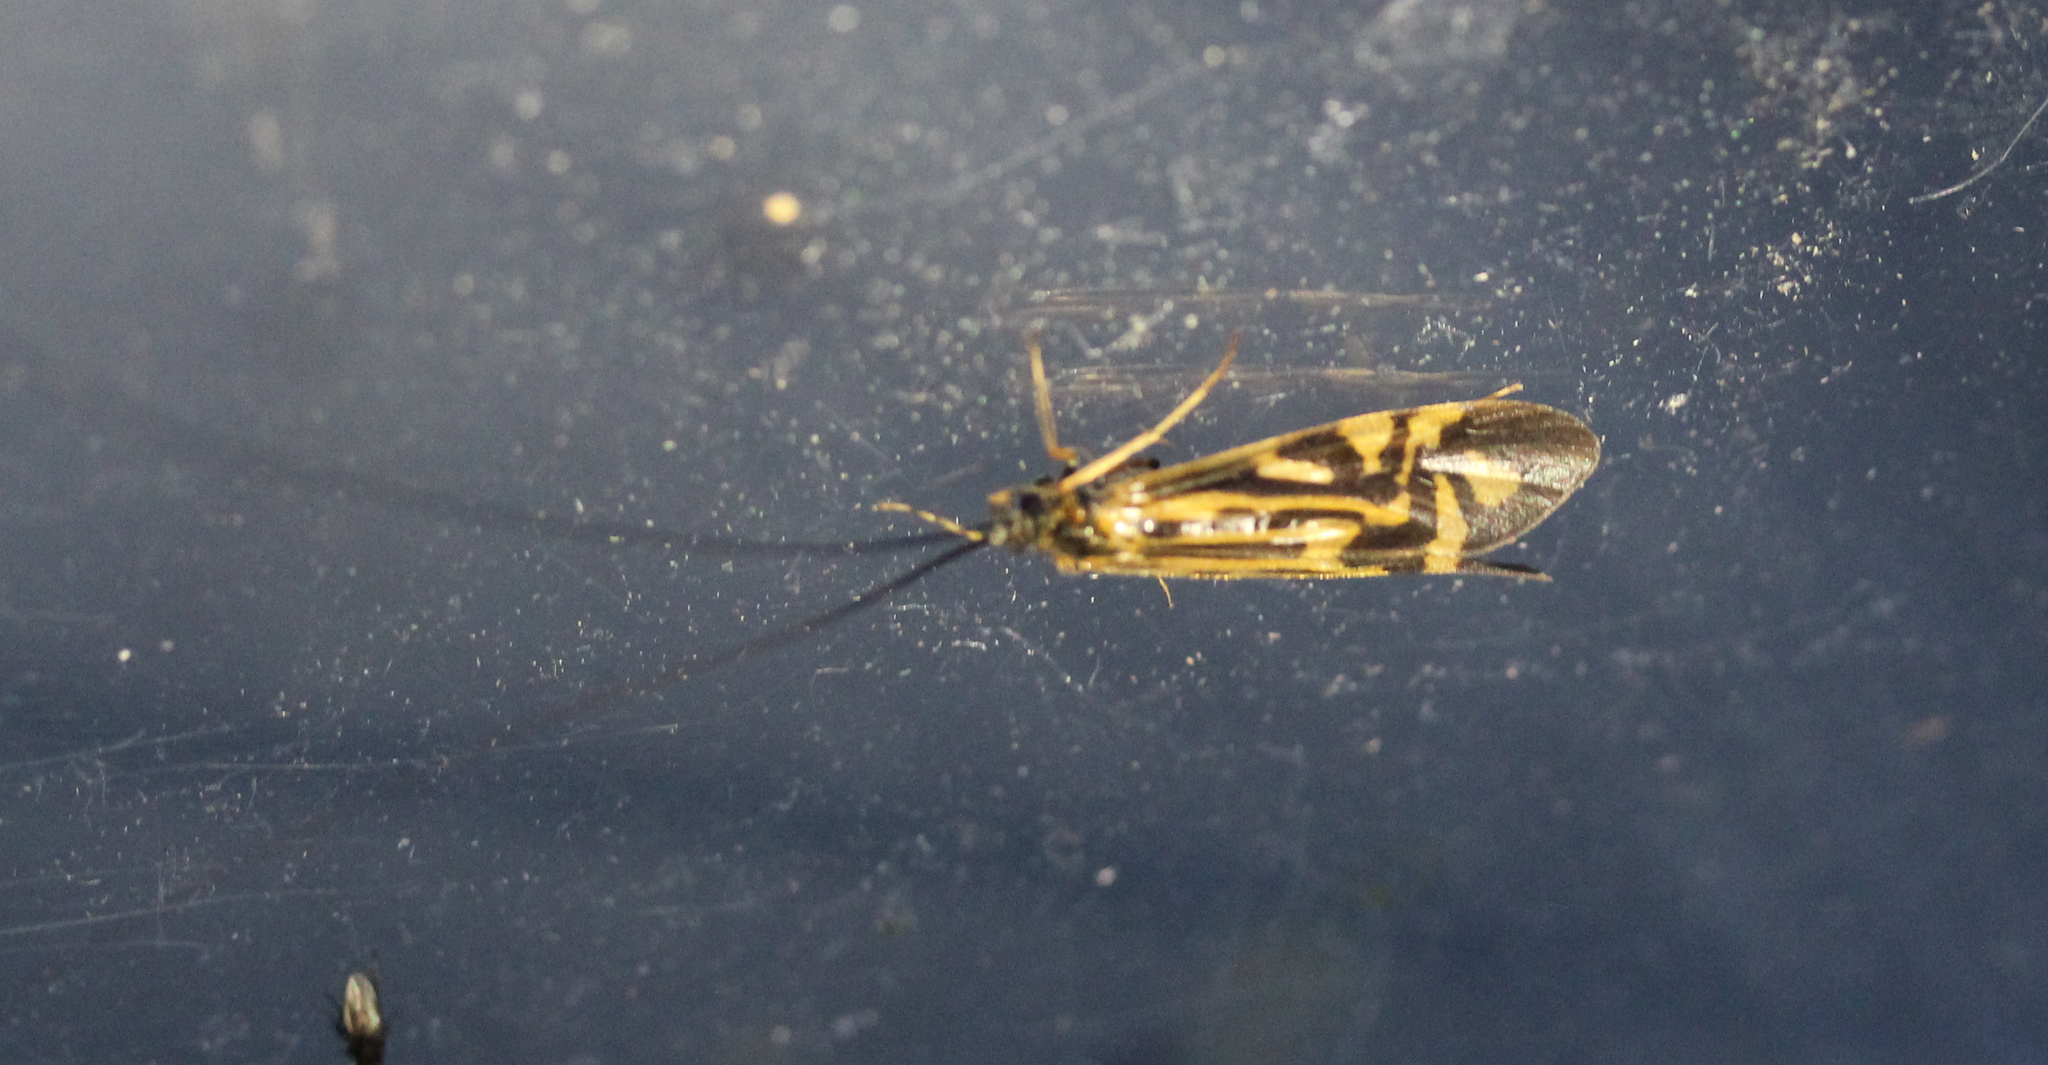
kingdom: Animalia
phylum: Arthropoda
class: Insecta
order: Trichoptera
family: Hydropsychidae
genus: Macrostemum
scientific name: Macrostemum zebratum
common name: Zebra caddisfly
